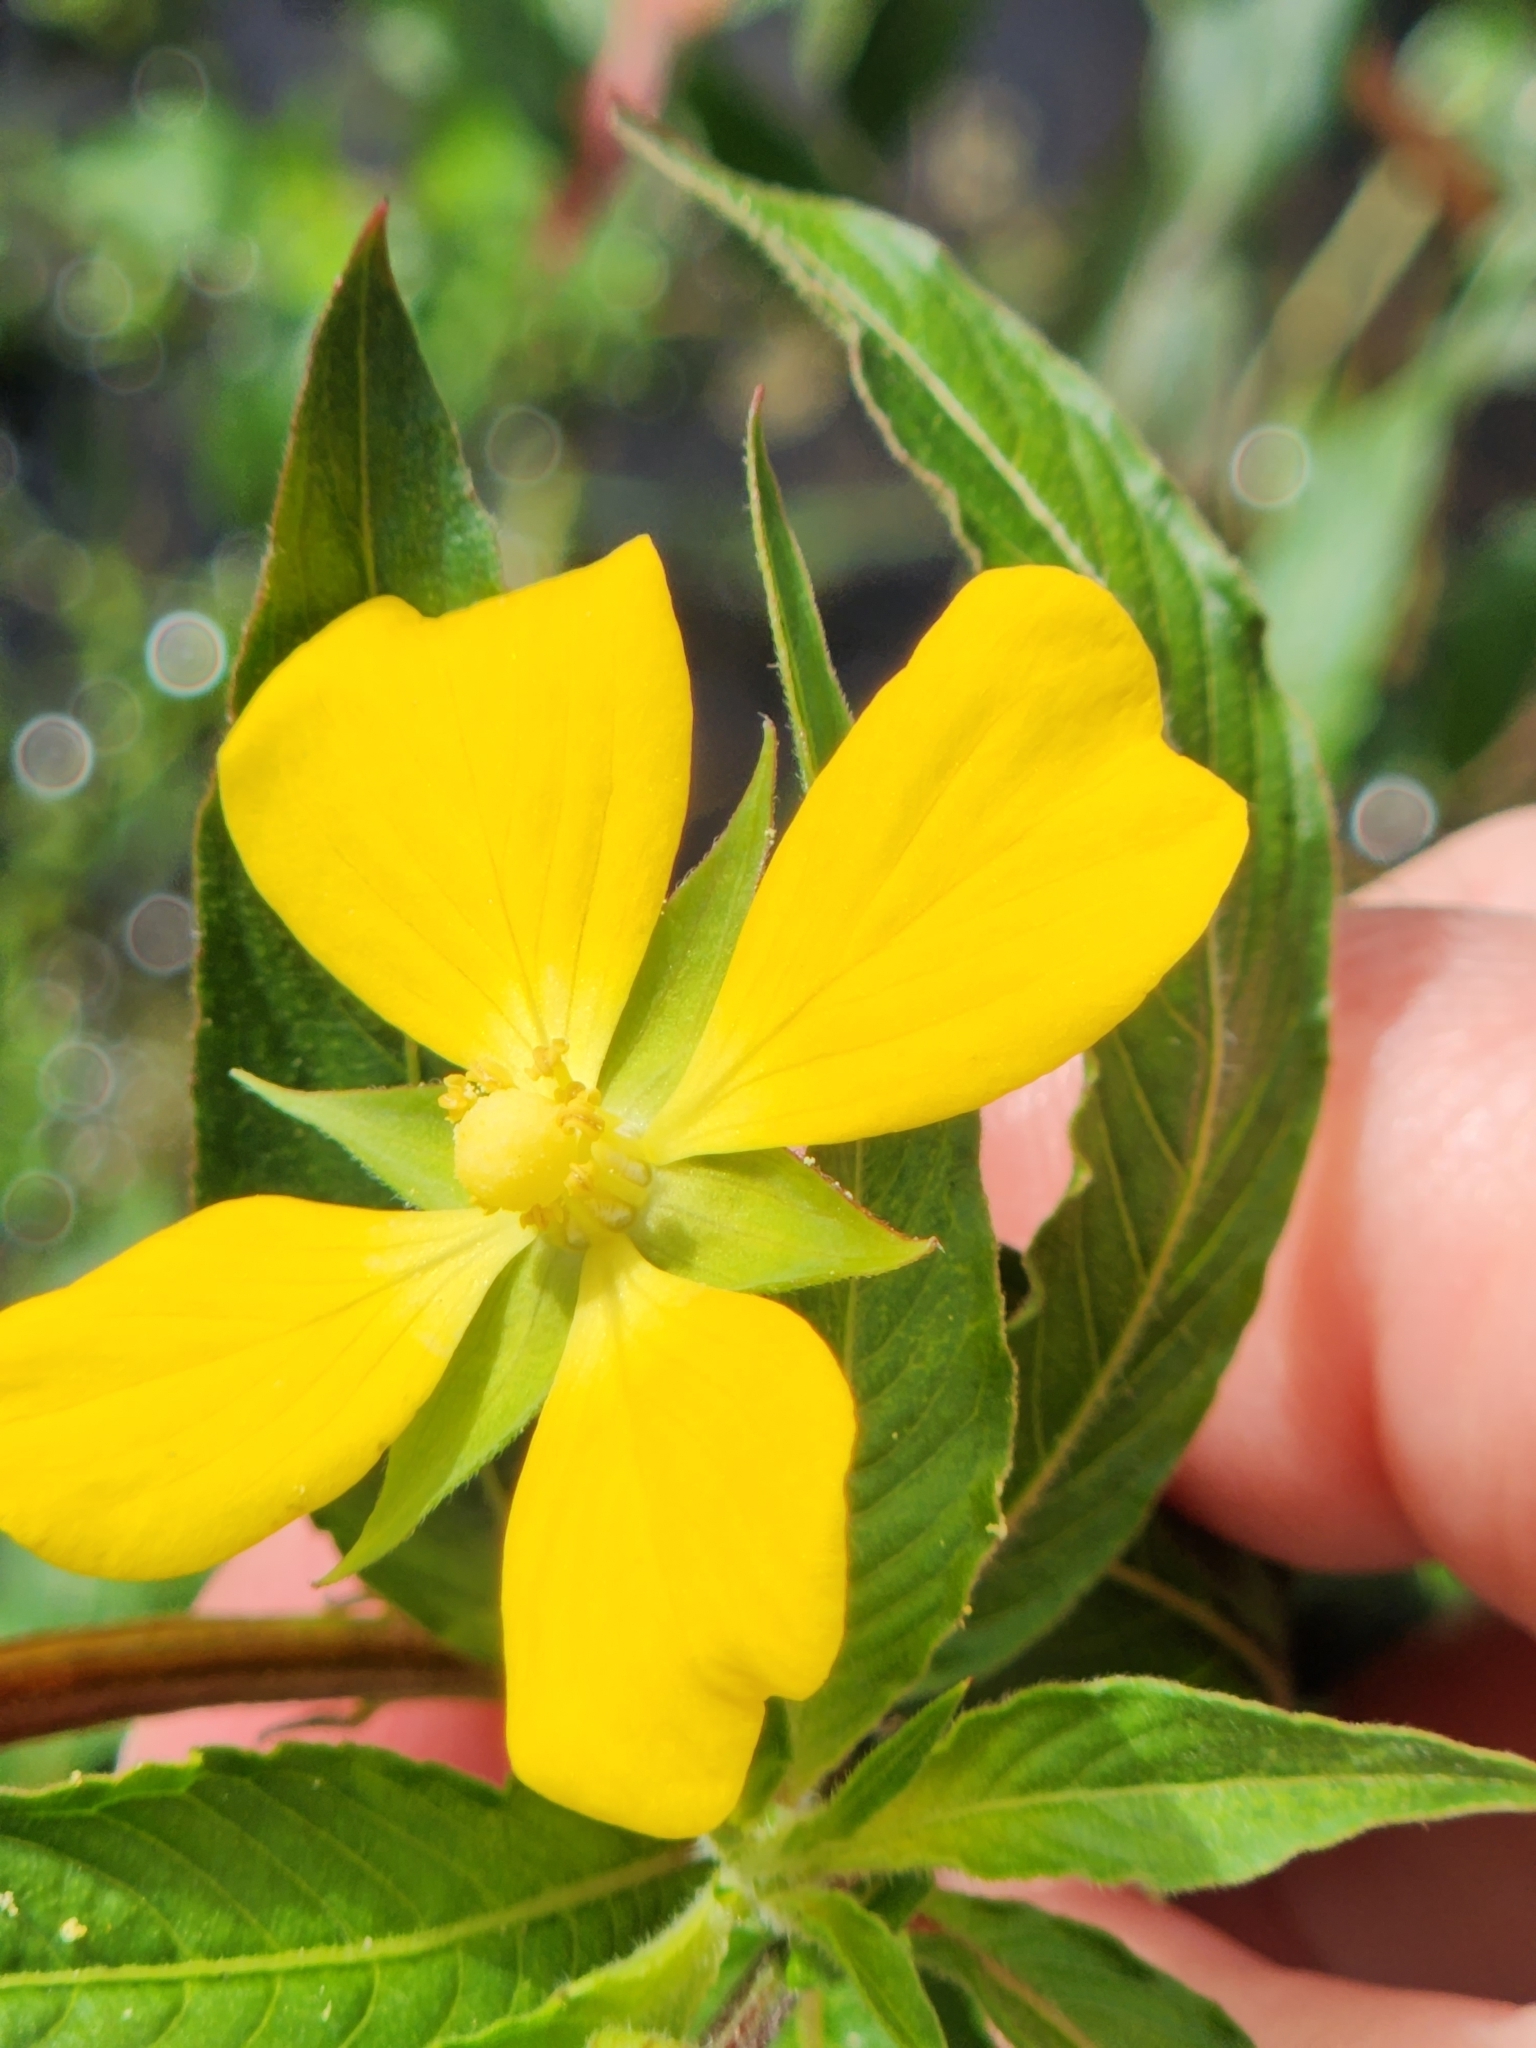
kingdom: Plantae
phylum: Tracheophyta
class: Magnoliopsida
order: Myrtales
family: Onagraceae
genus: Ludwigia
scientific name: Ludwigia octovalvis
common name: Water-primrose
